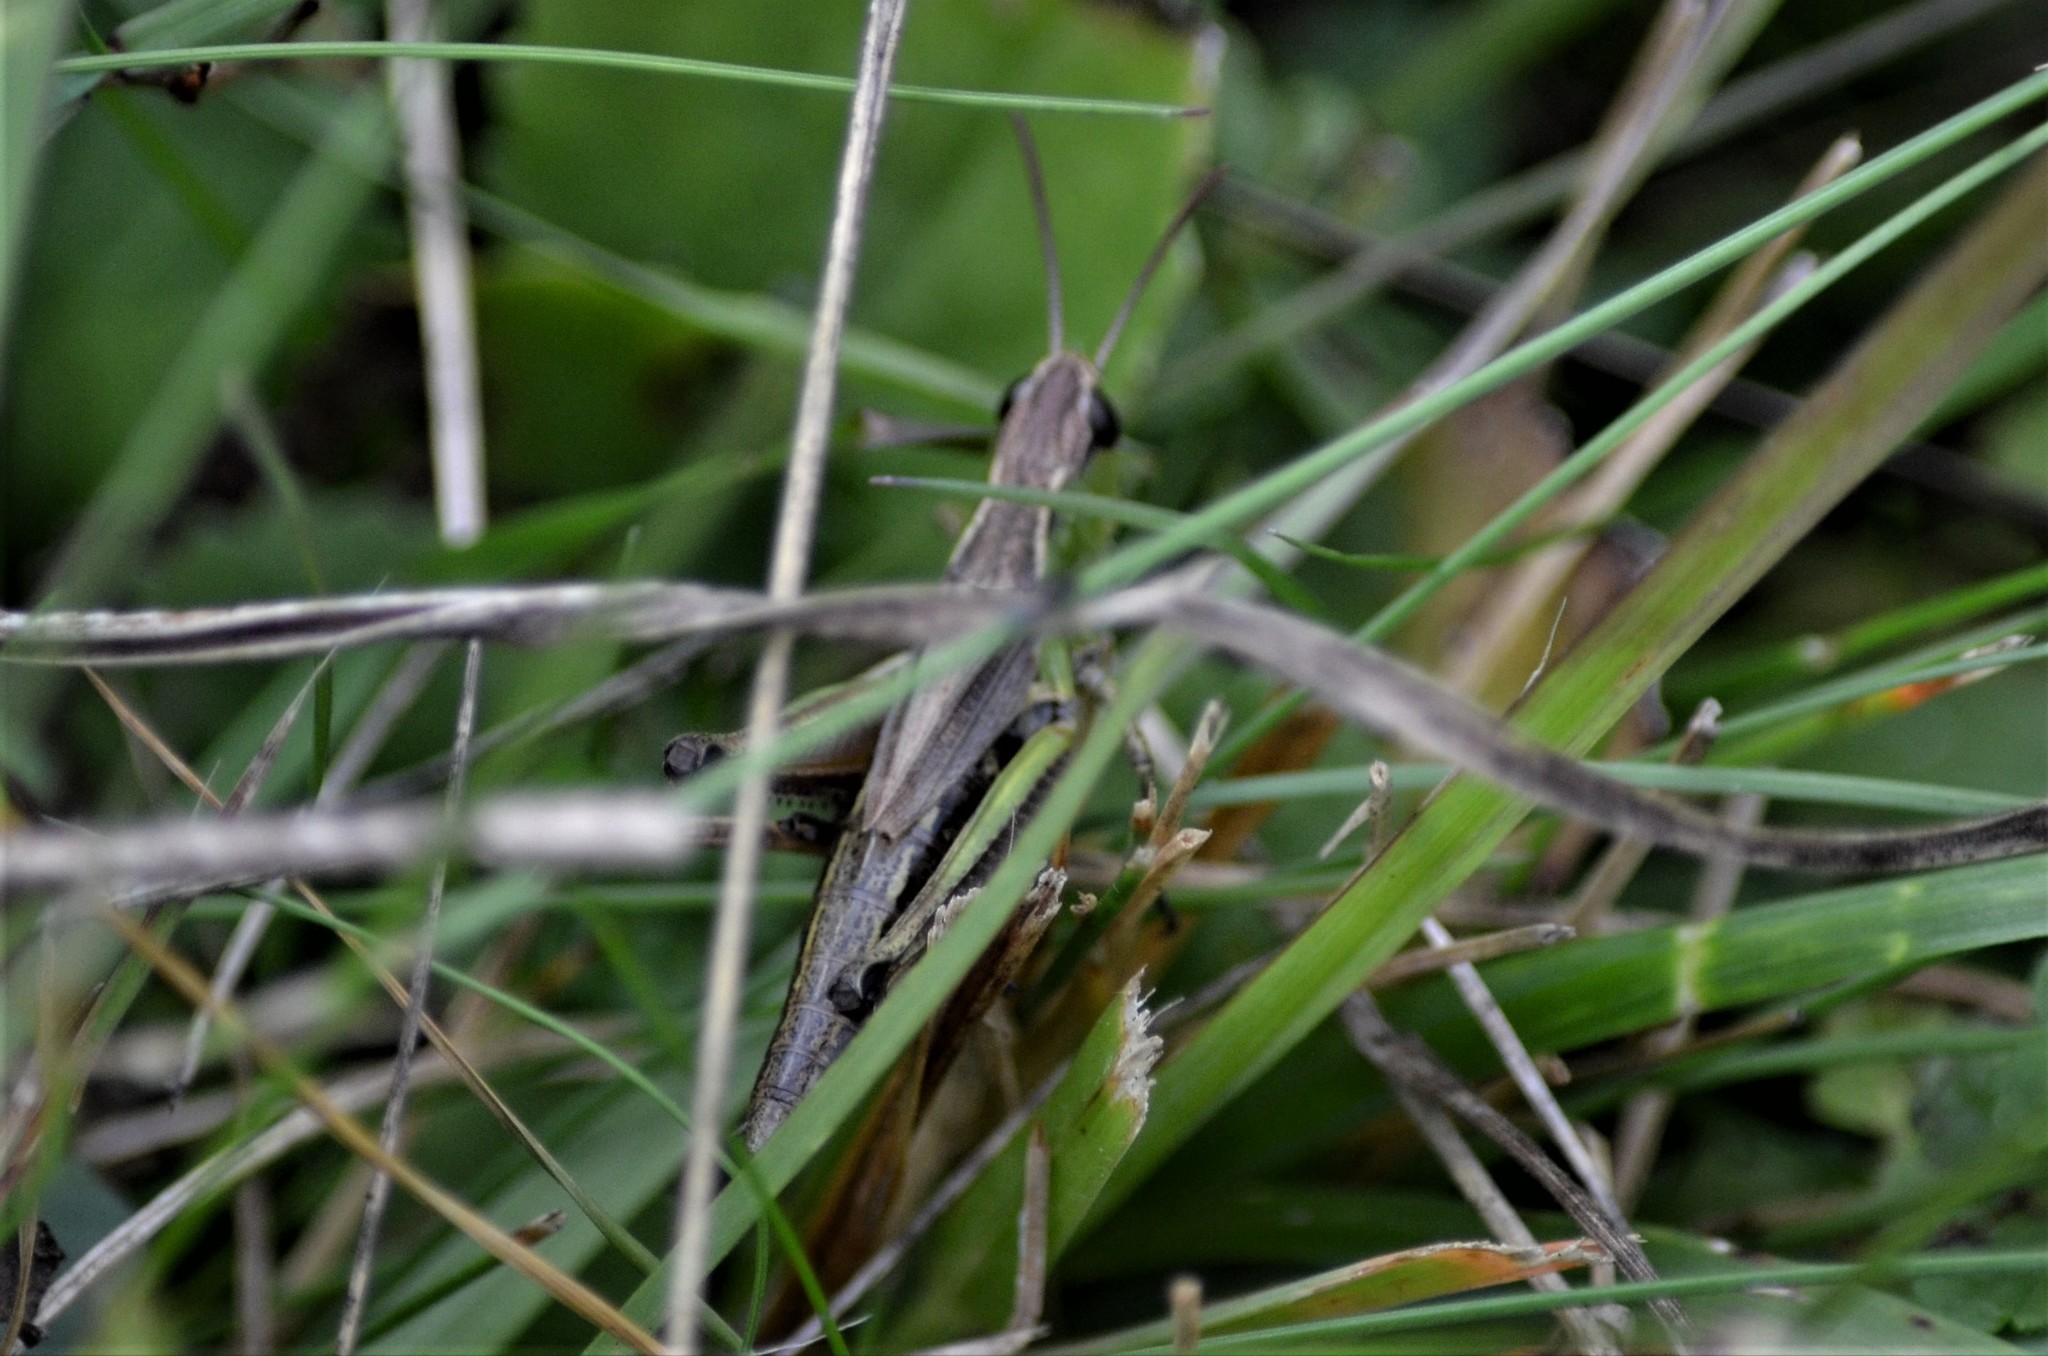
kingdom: Animalia
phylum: Arthropoda
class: Insecta
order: Orthoptera
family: Acrididae
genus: Pseudochorthippus
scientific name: Pseudochorthippus parallelus
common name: Meadow grasshopper
